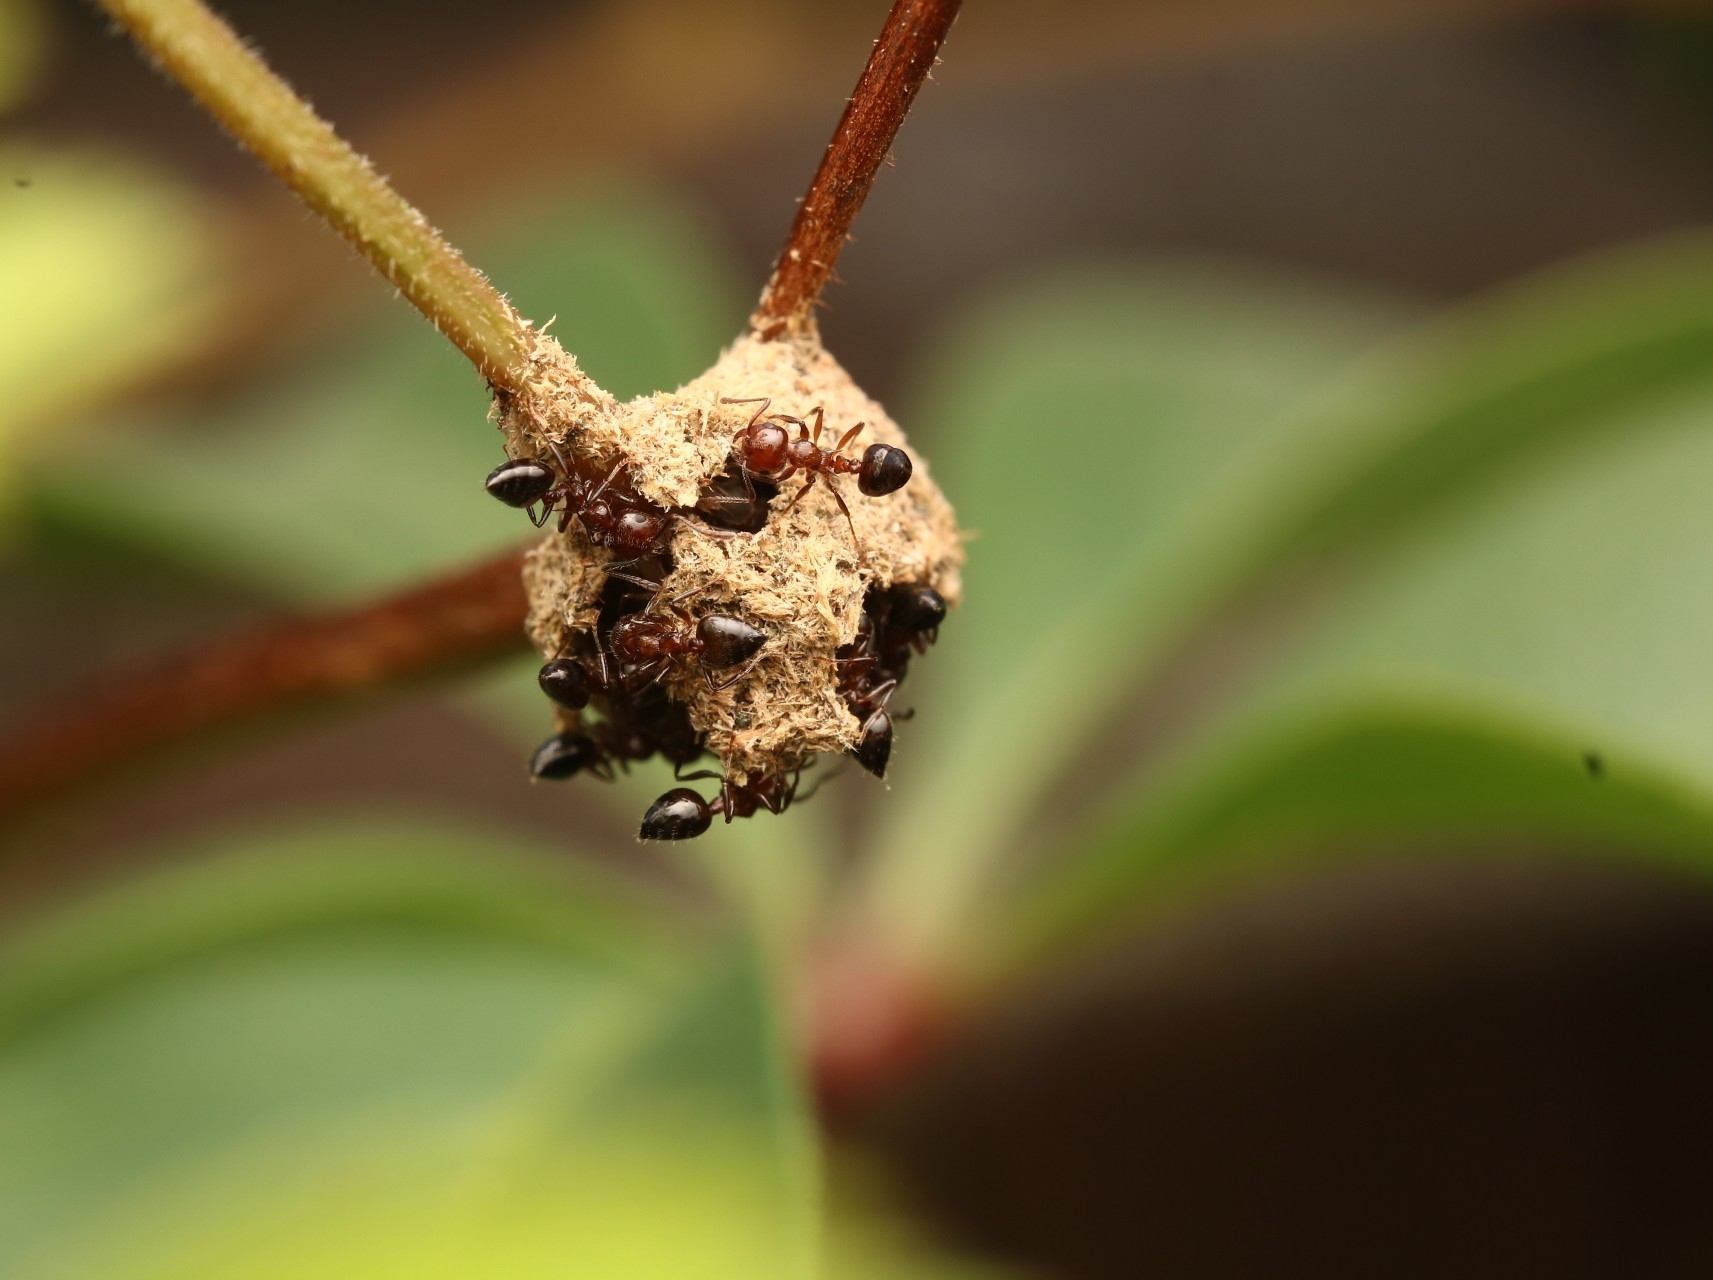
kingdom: Animalia
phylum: Arthropoda
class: Insecta
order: Hymenoptera
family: Formicidae
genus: Crematogaster
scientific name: Crematogaster pilosa
